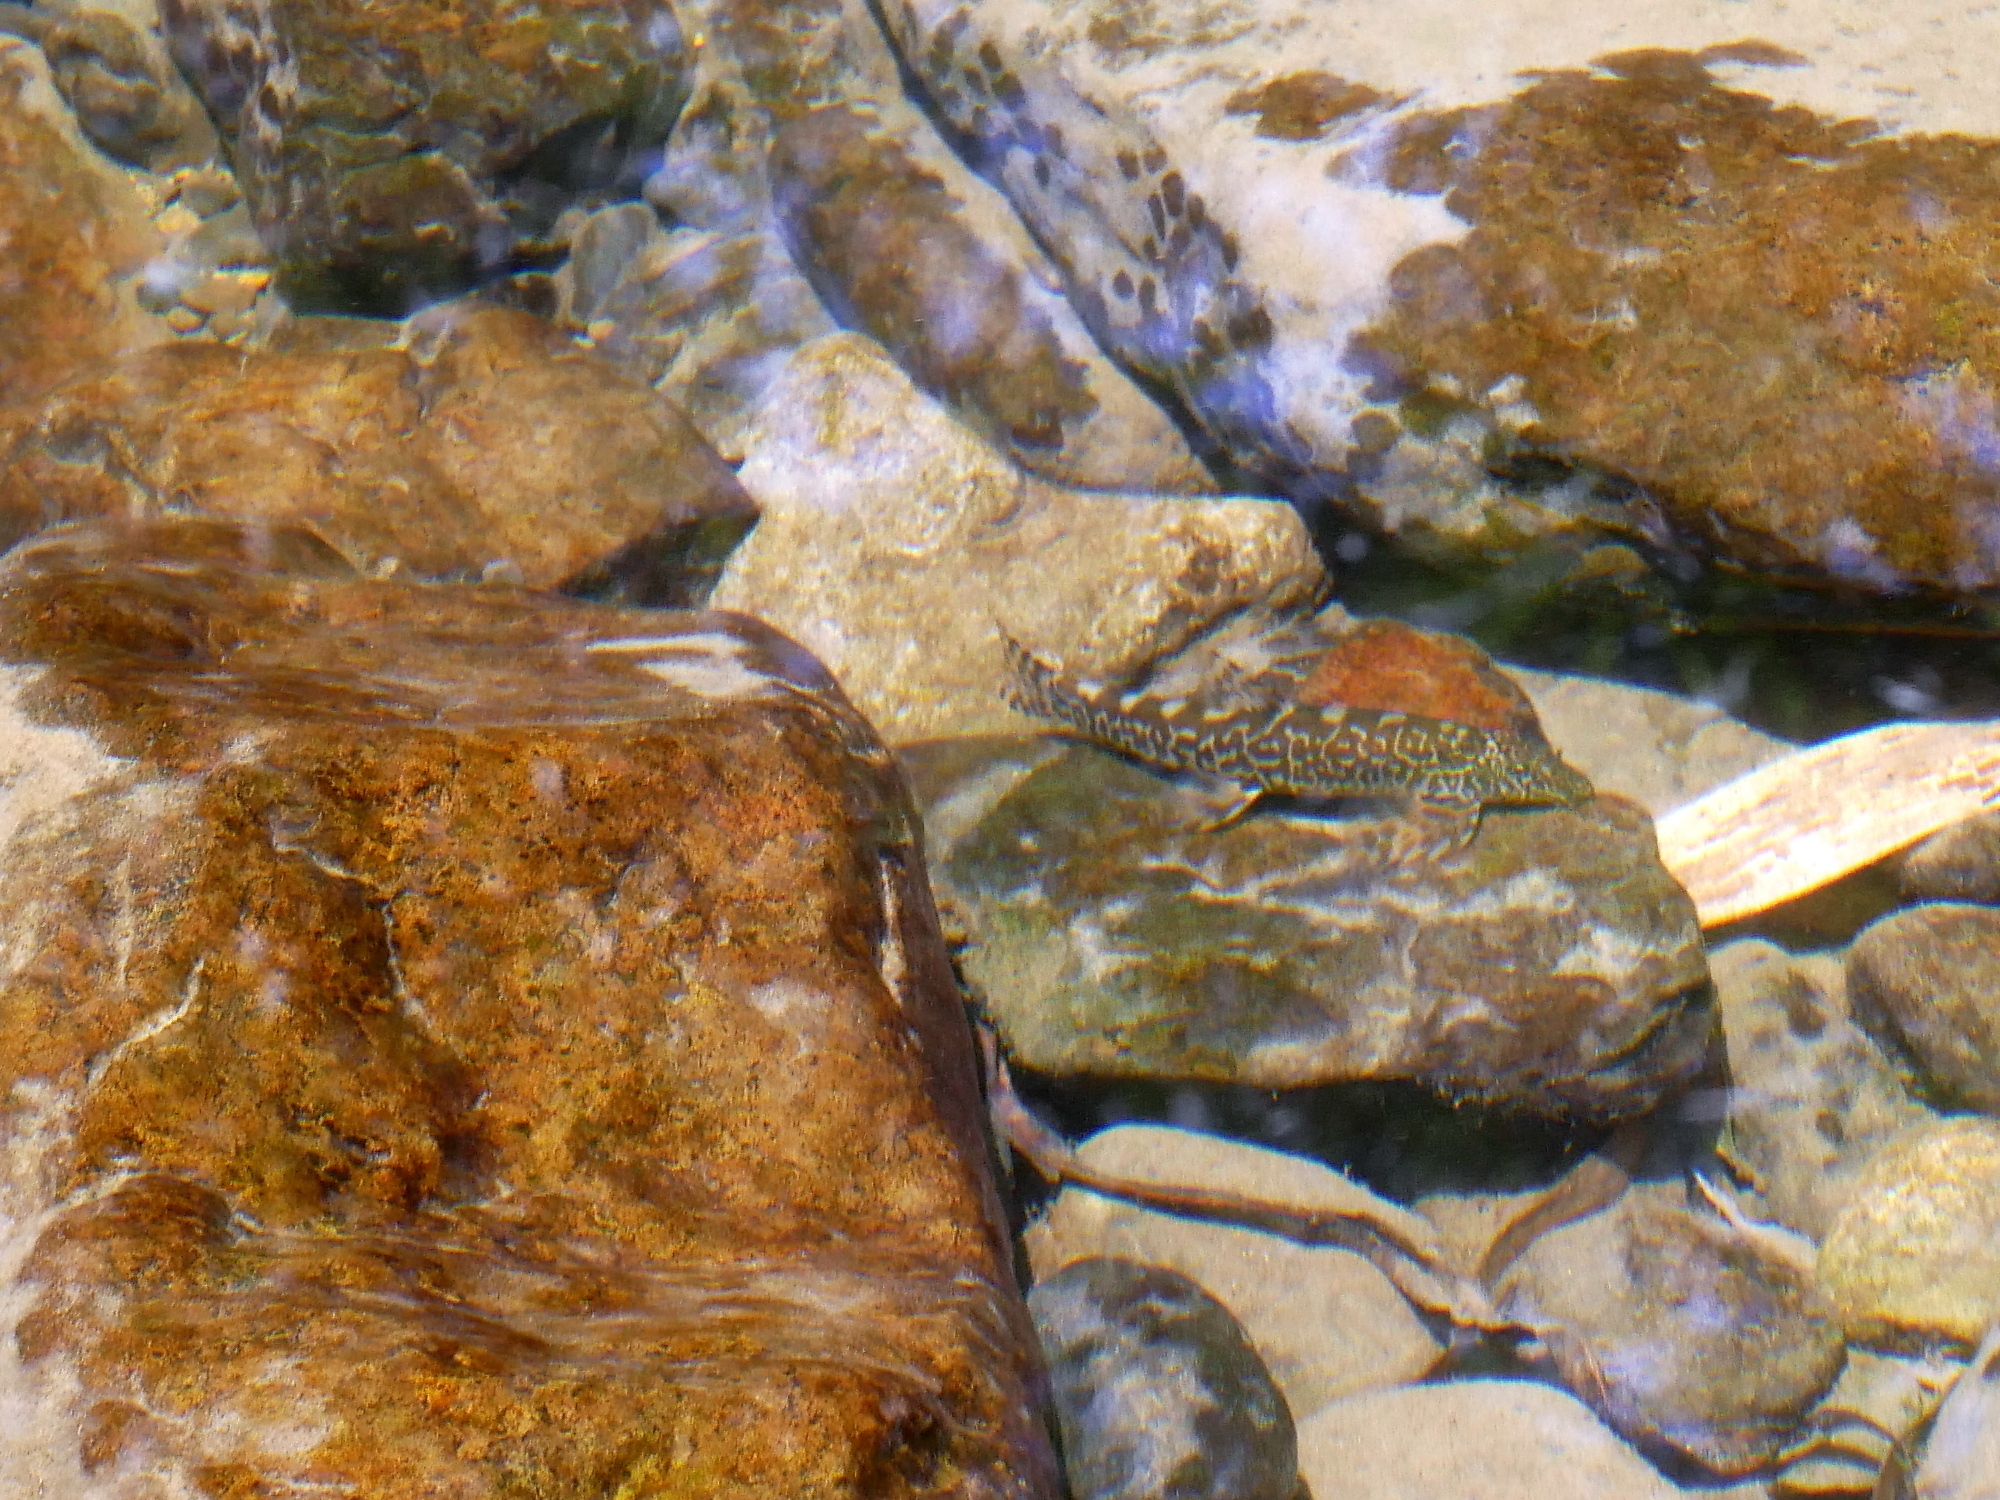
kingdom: Animalia
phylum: Chordata
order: Cypriniformes
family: Balitoridae
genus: Formosania
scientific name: Formosania lacustre
